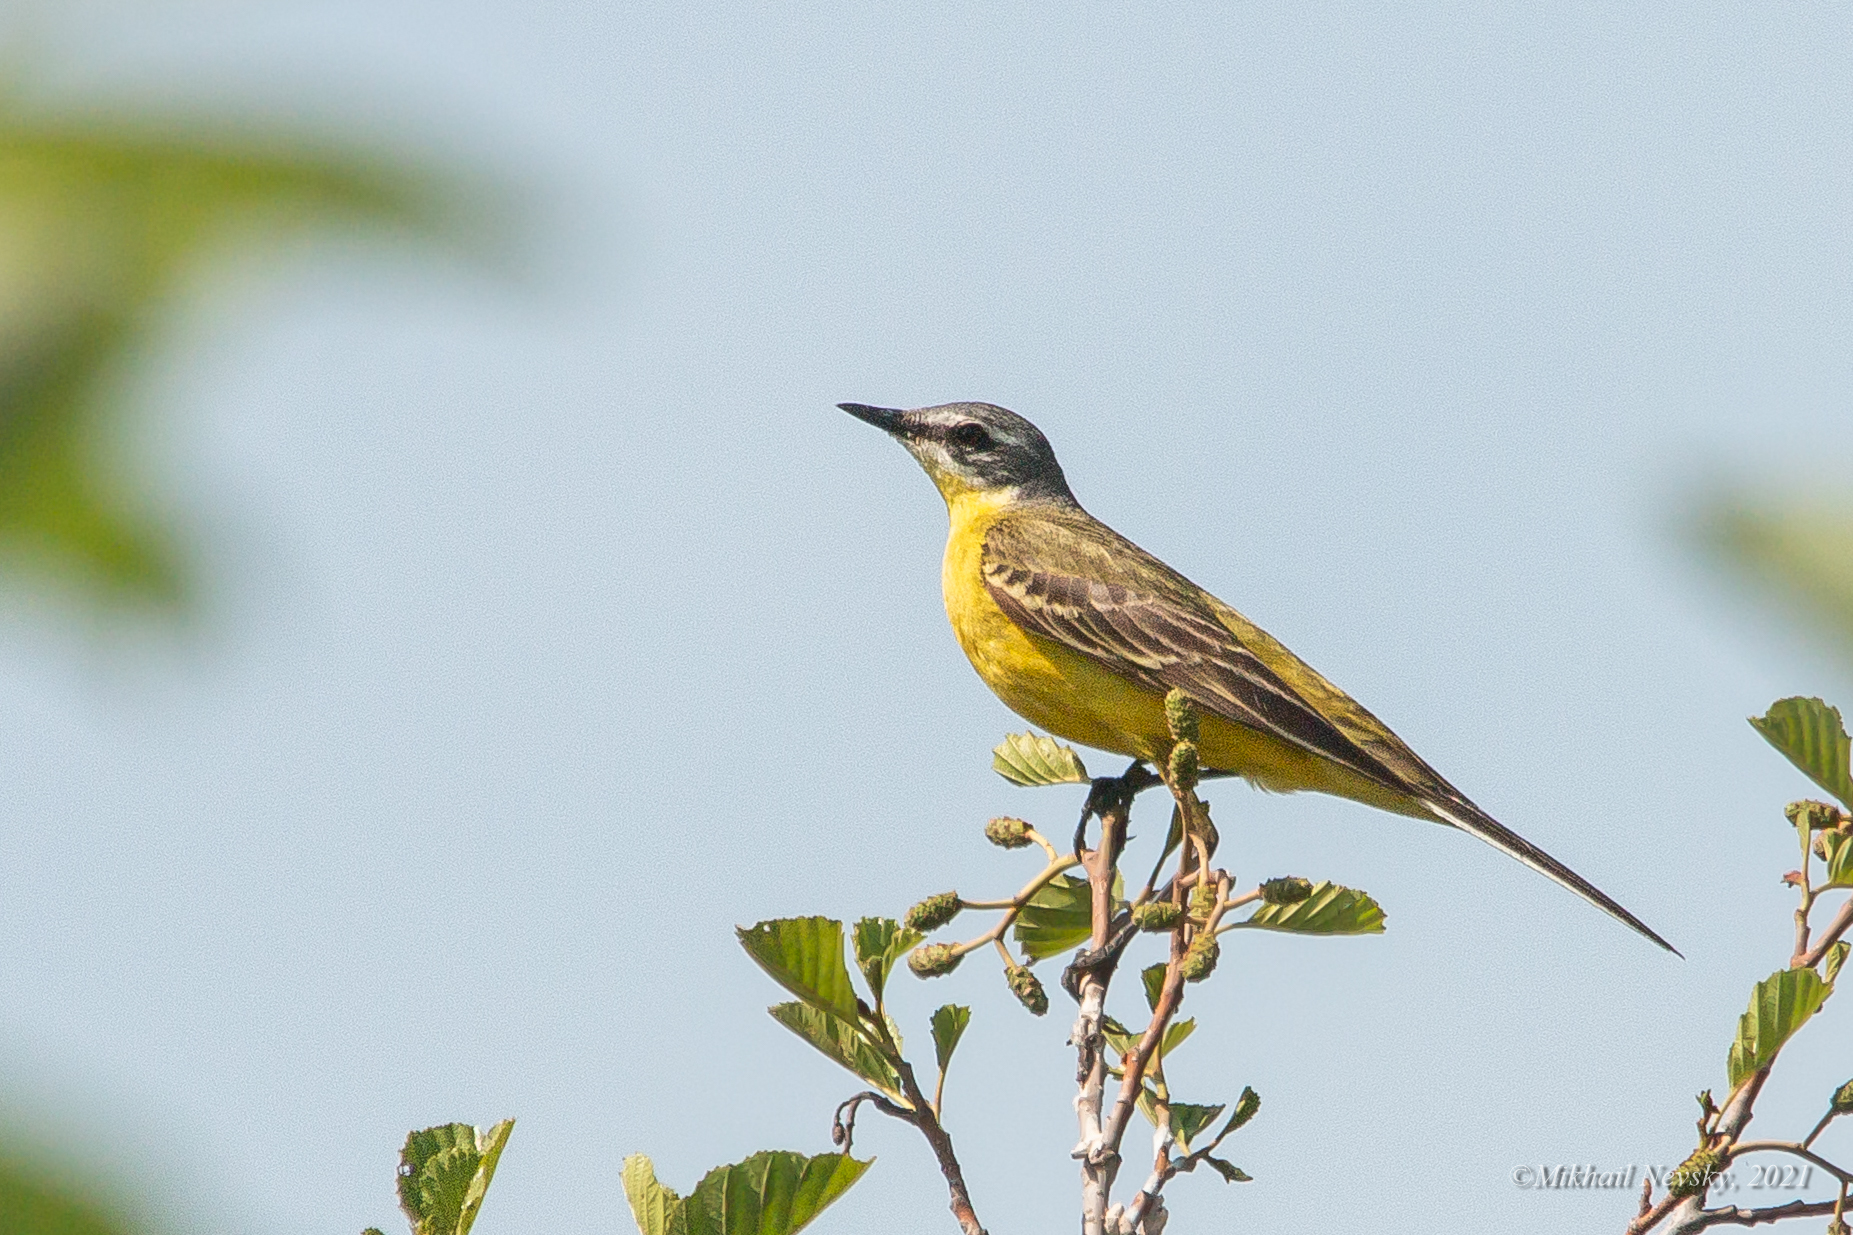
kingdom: Animalia
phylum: Chordata
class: Aves
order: Passeriformes
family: Motacillidae
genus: Motacilla
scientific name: Motacilla flava
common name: Western yellow wagtail
